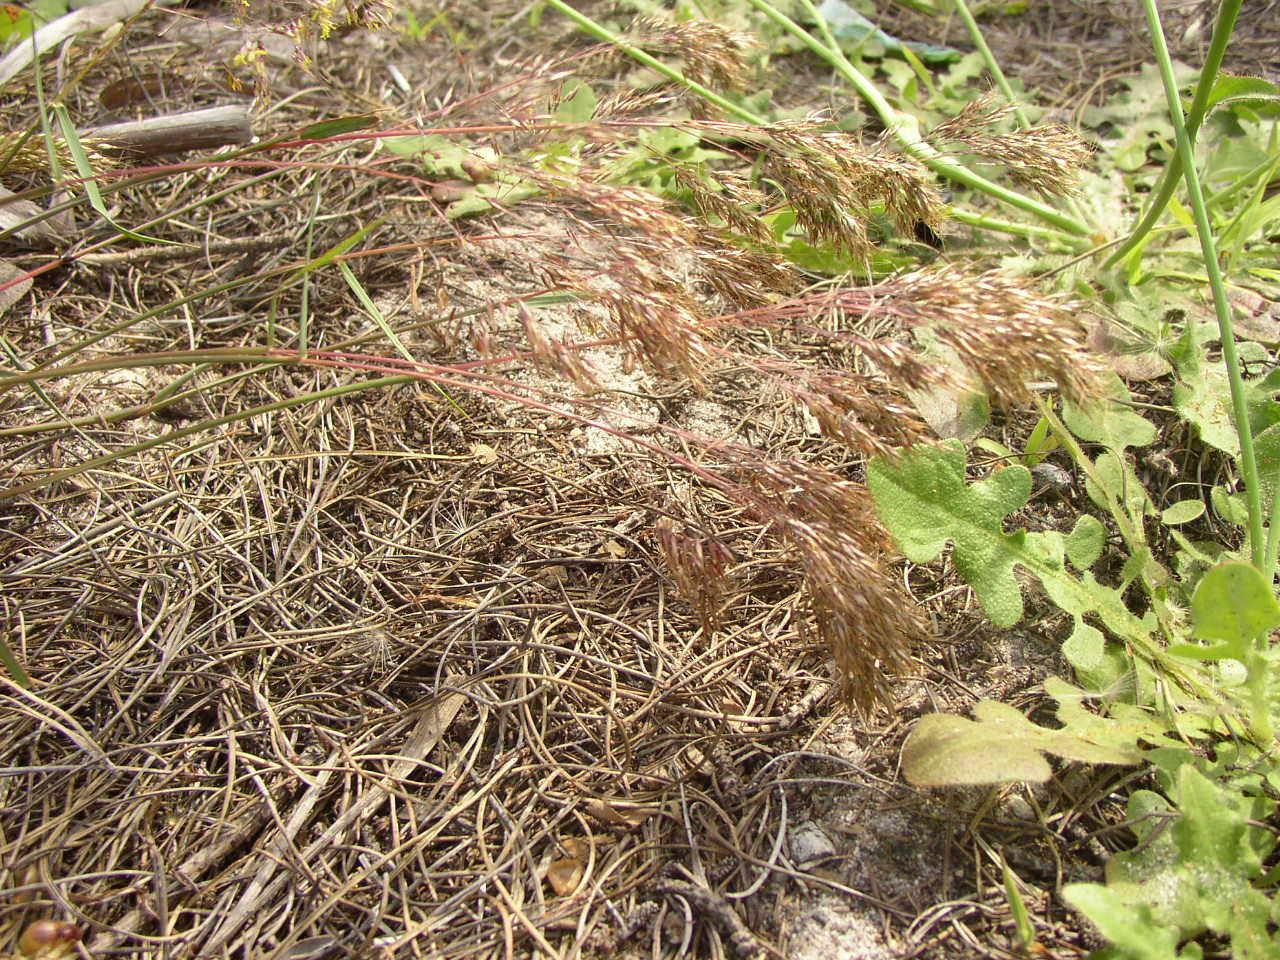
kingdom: Plantae
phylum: Tracheophyta
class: Liliopsida
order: Poales
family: Poaceae
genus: Pentameris
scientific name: Pentameris pallida
